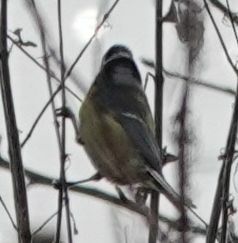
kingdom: Animalia
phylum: Chordata
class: Aves
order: Passeriformes
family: Paridae
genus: Cyanistes
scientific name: Cyanistes caeruleus
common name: Eurasian blue tit
